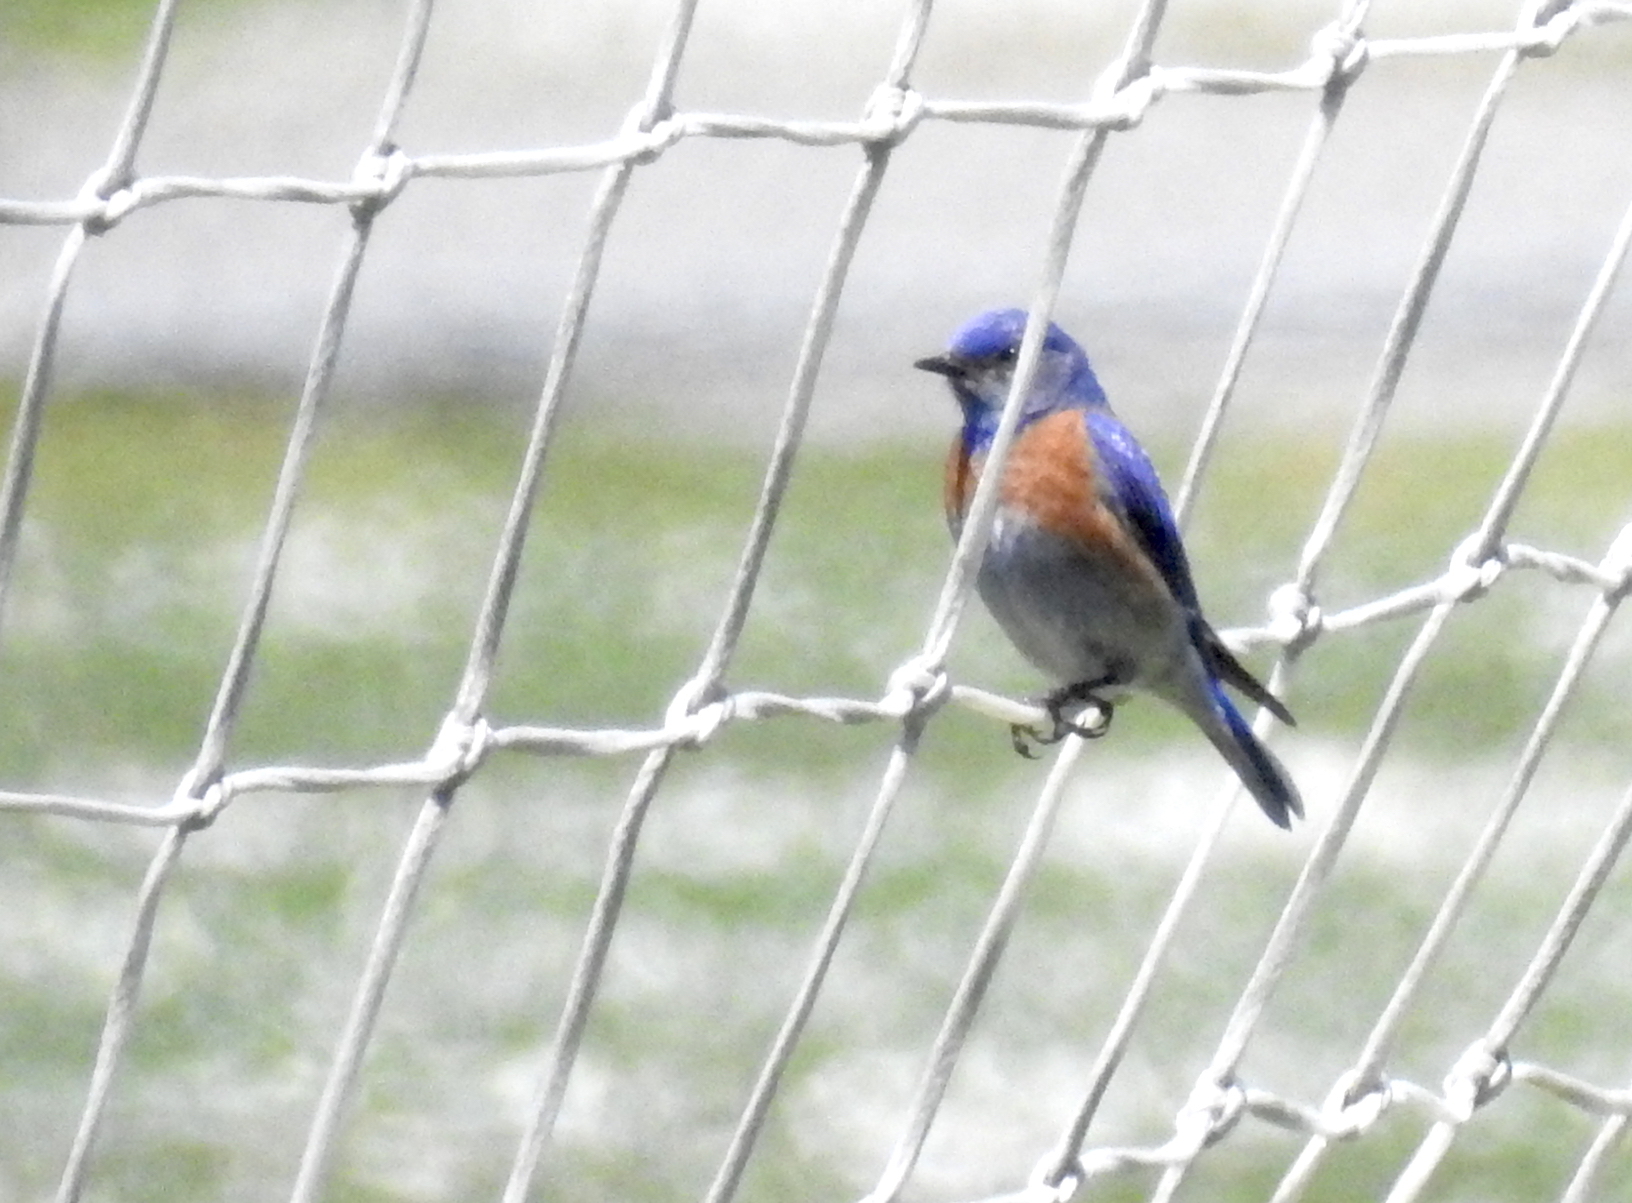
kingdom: Animalia
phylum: Chordata
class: Aves
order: Passeriformes
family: Turdidae
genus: Sialia
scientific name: Sialia mexicana
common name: Western bluebird
